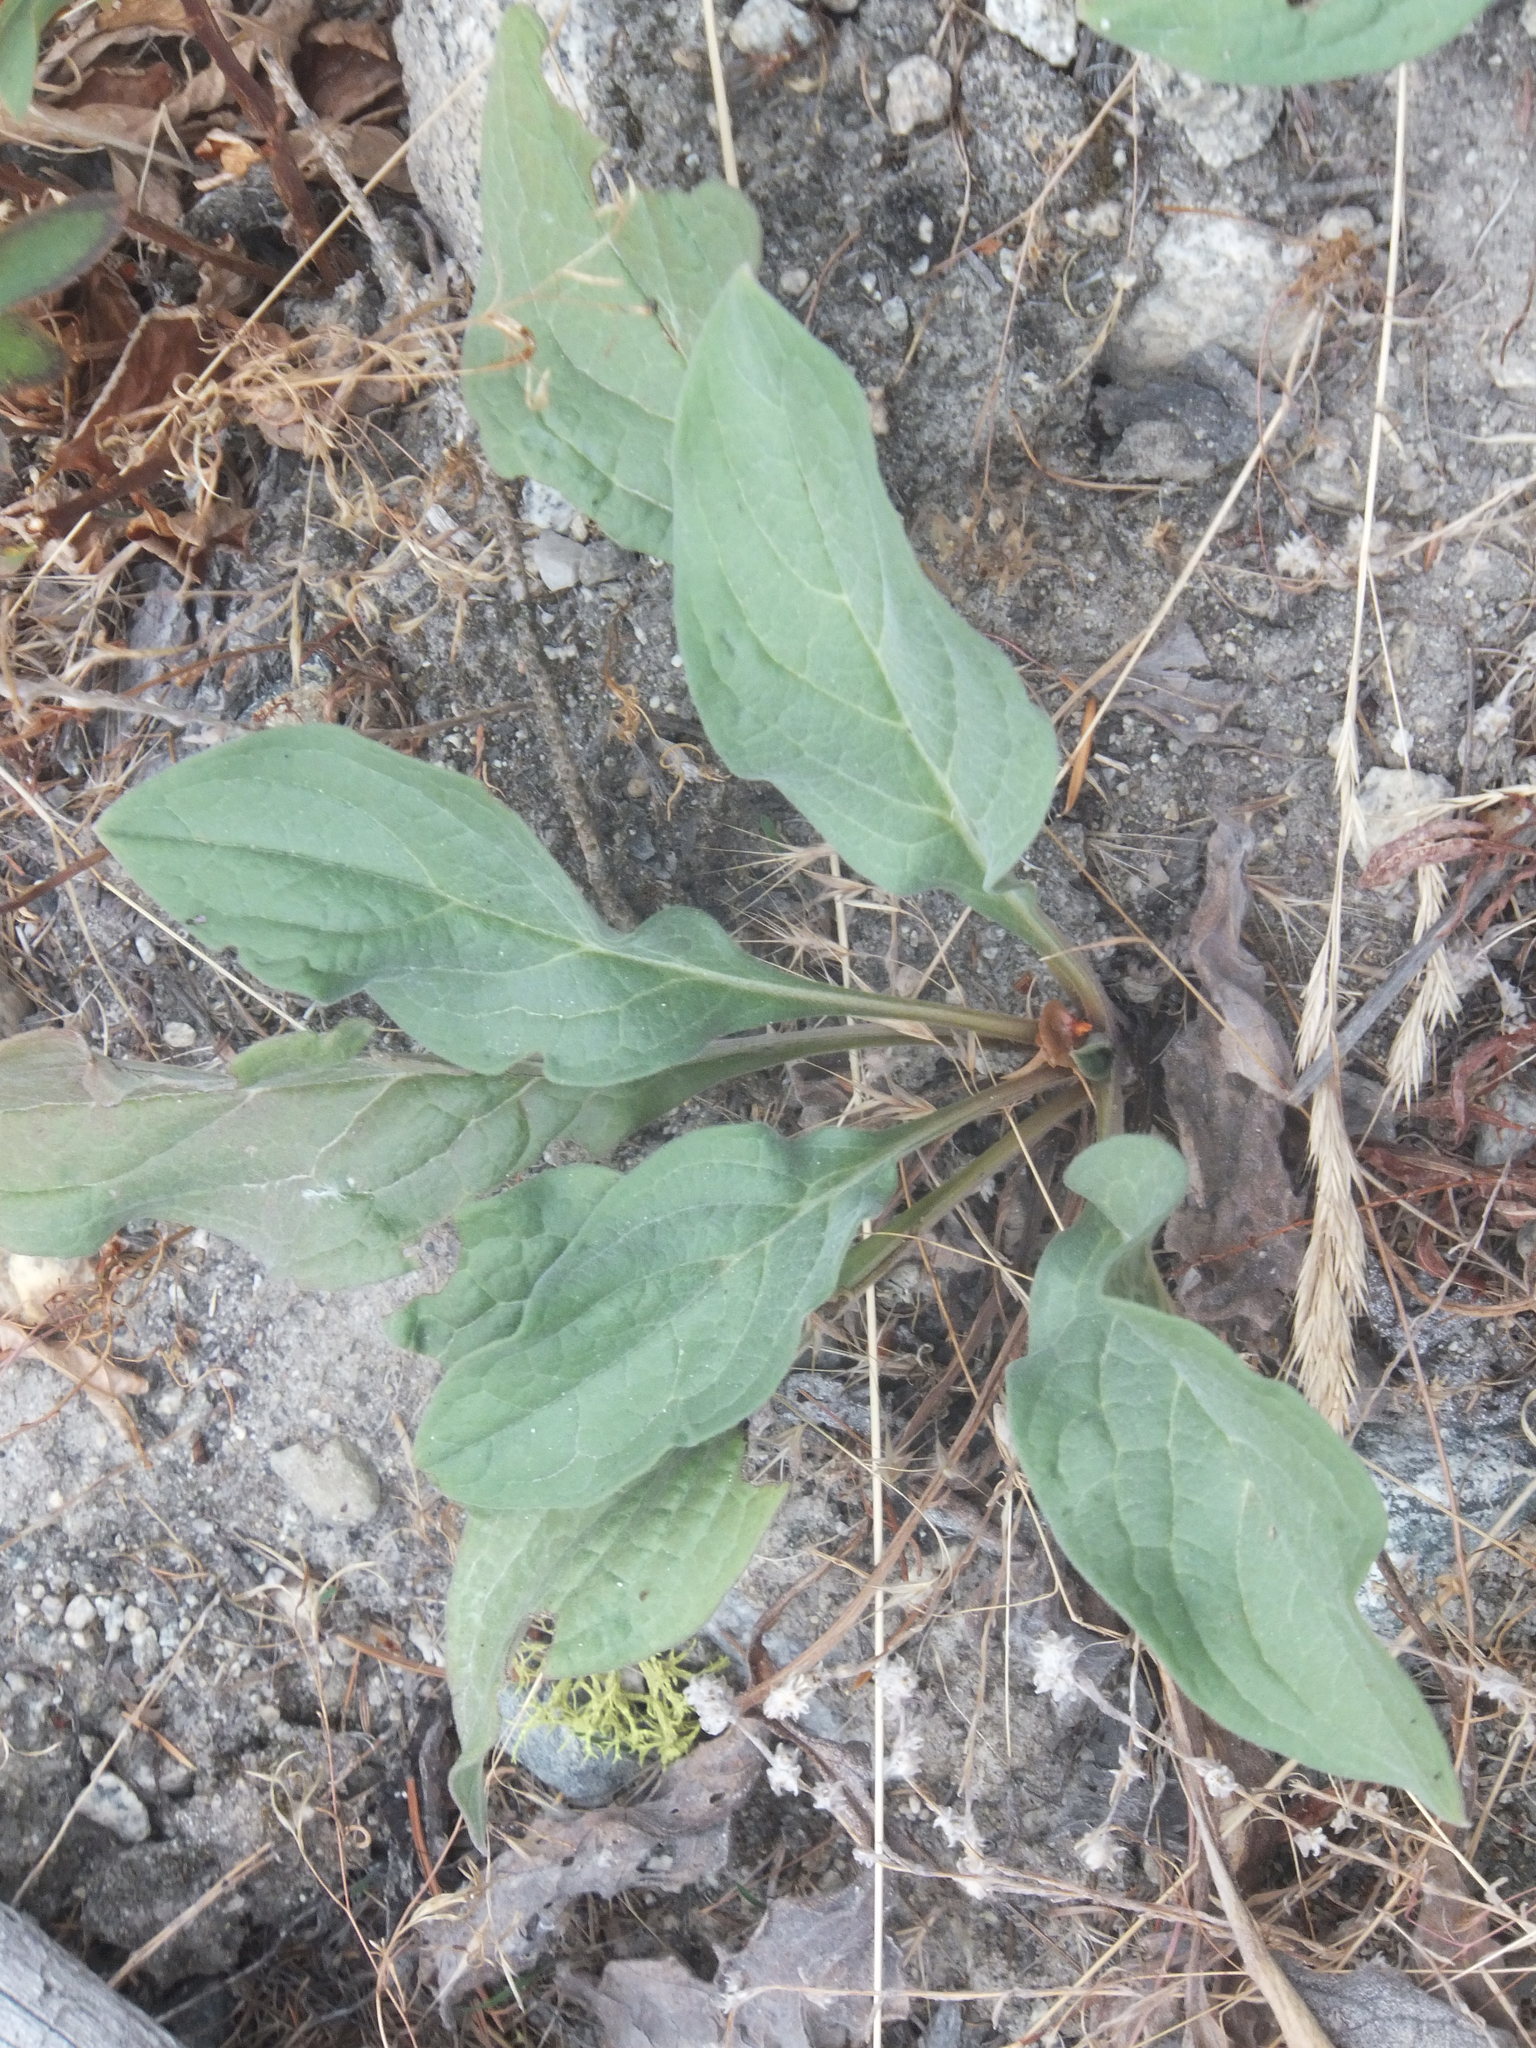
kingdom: Plantae
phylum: Tracheophyta
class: Magnoliopsida
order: Boraginales
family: Boraginaceae
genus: Cynoglossum
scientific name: Cynoglossum officinale
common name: Hound's-tongue
